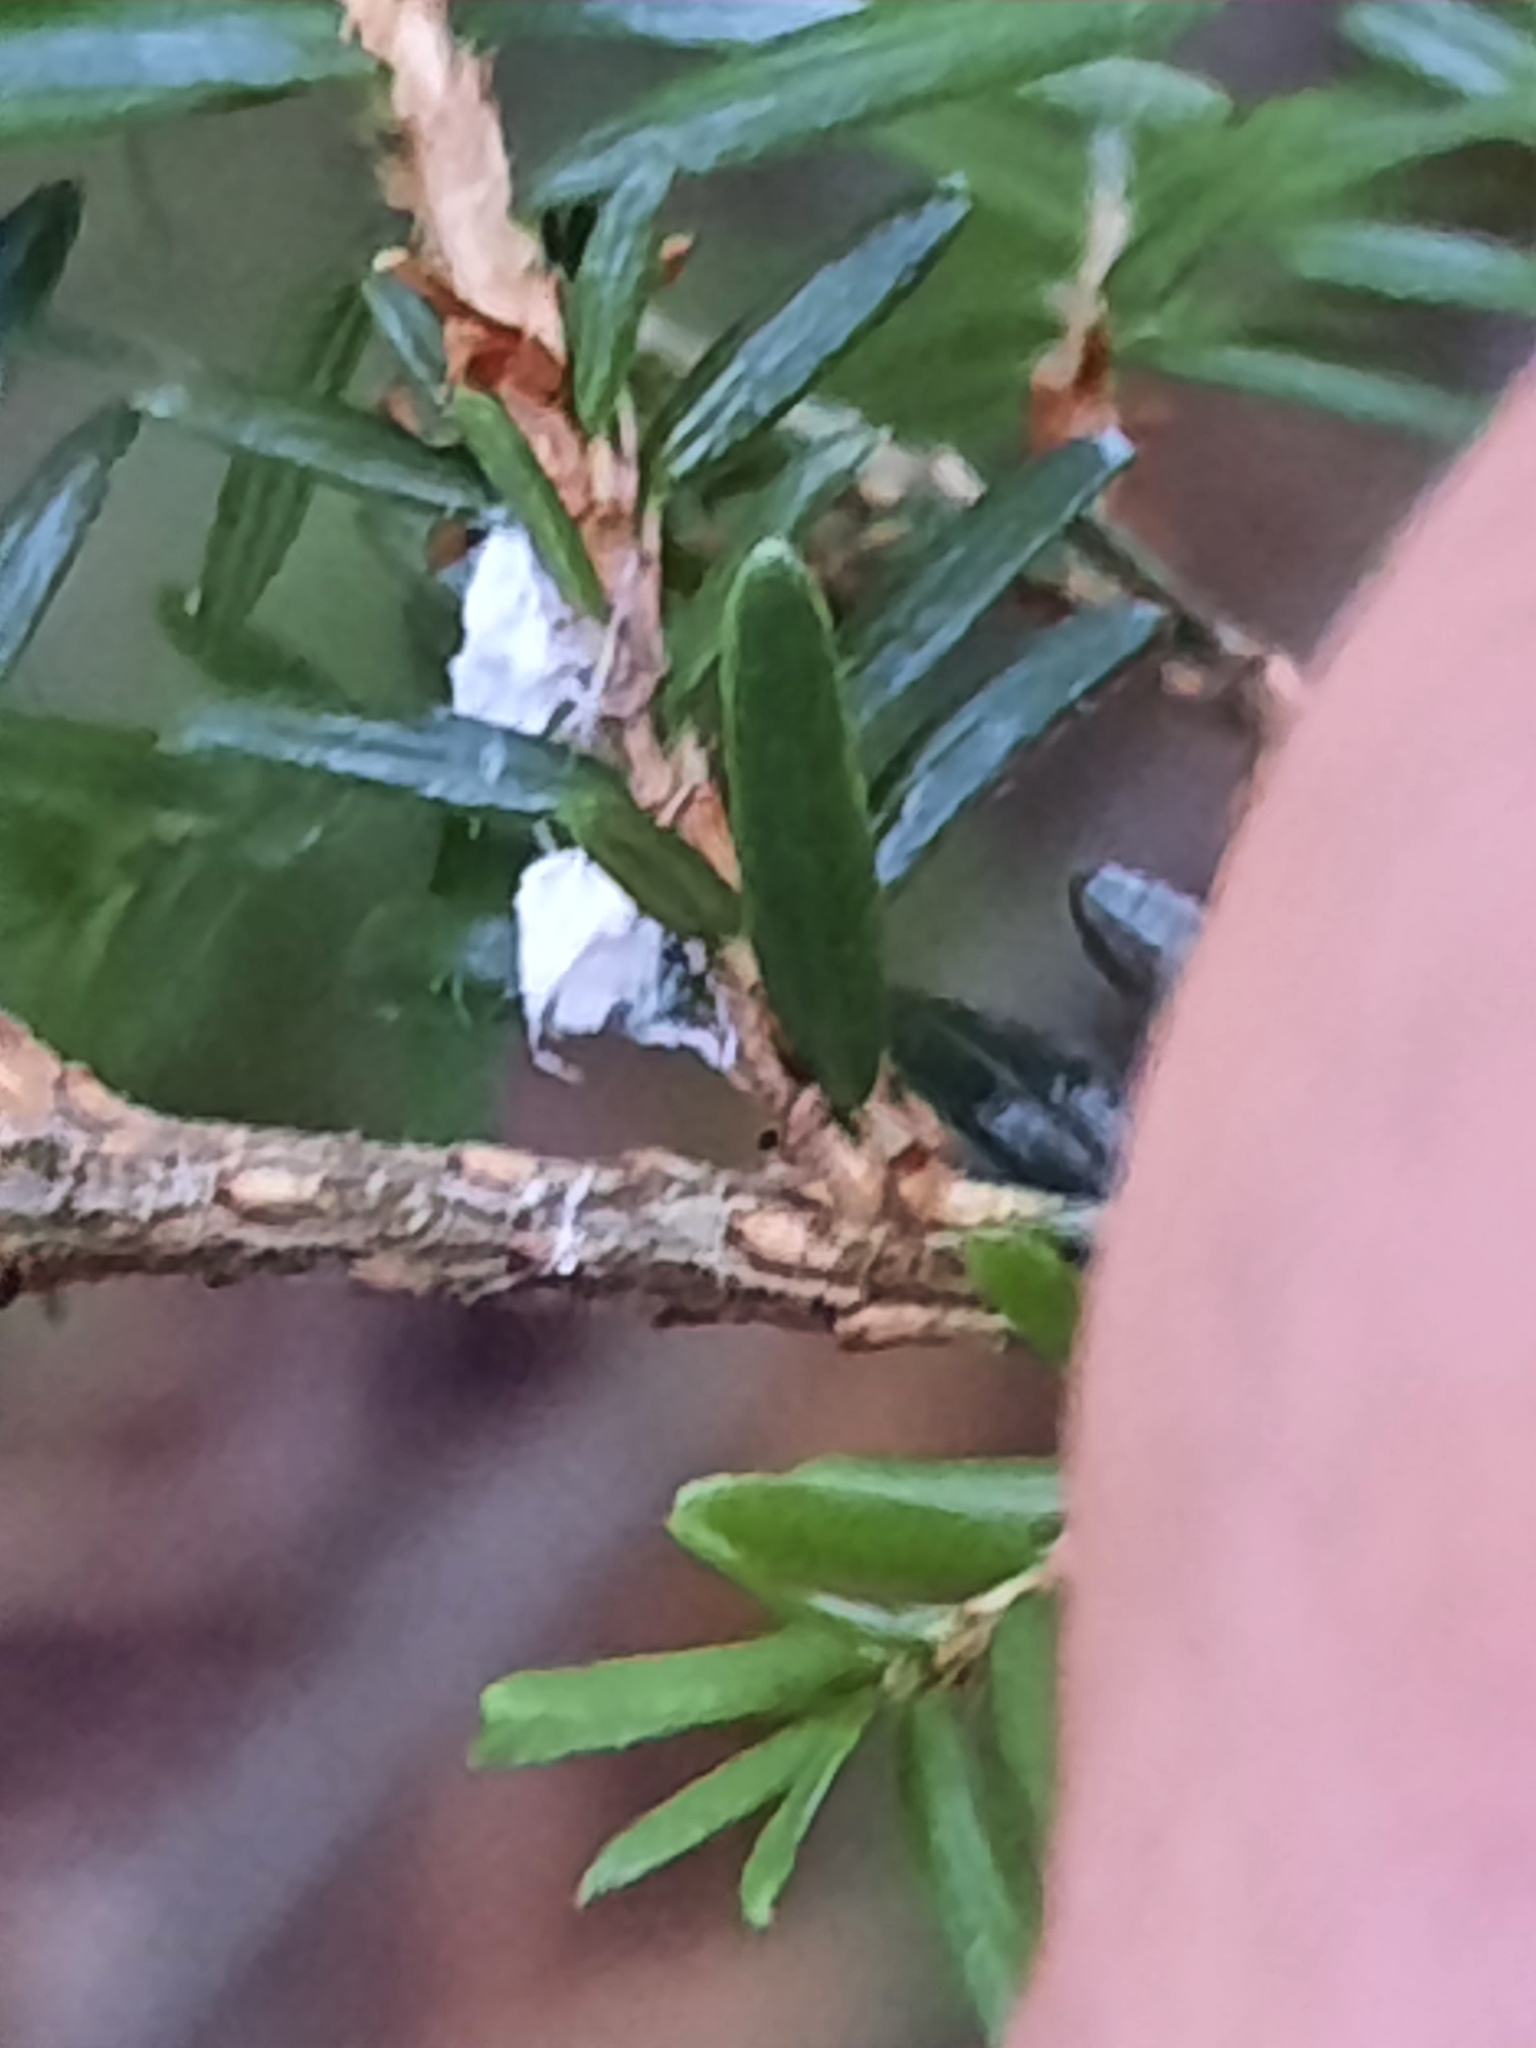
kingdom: Animalia
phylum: Arthropoda
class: Insecta
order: Hemiptera
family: Adelgidae
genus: Adelges
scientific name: Adelges tsugae
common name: Hemlock woolly adelgid
